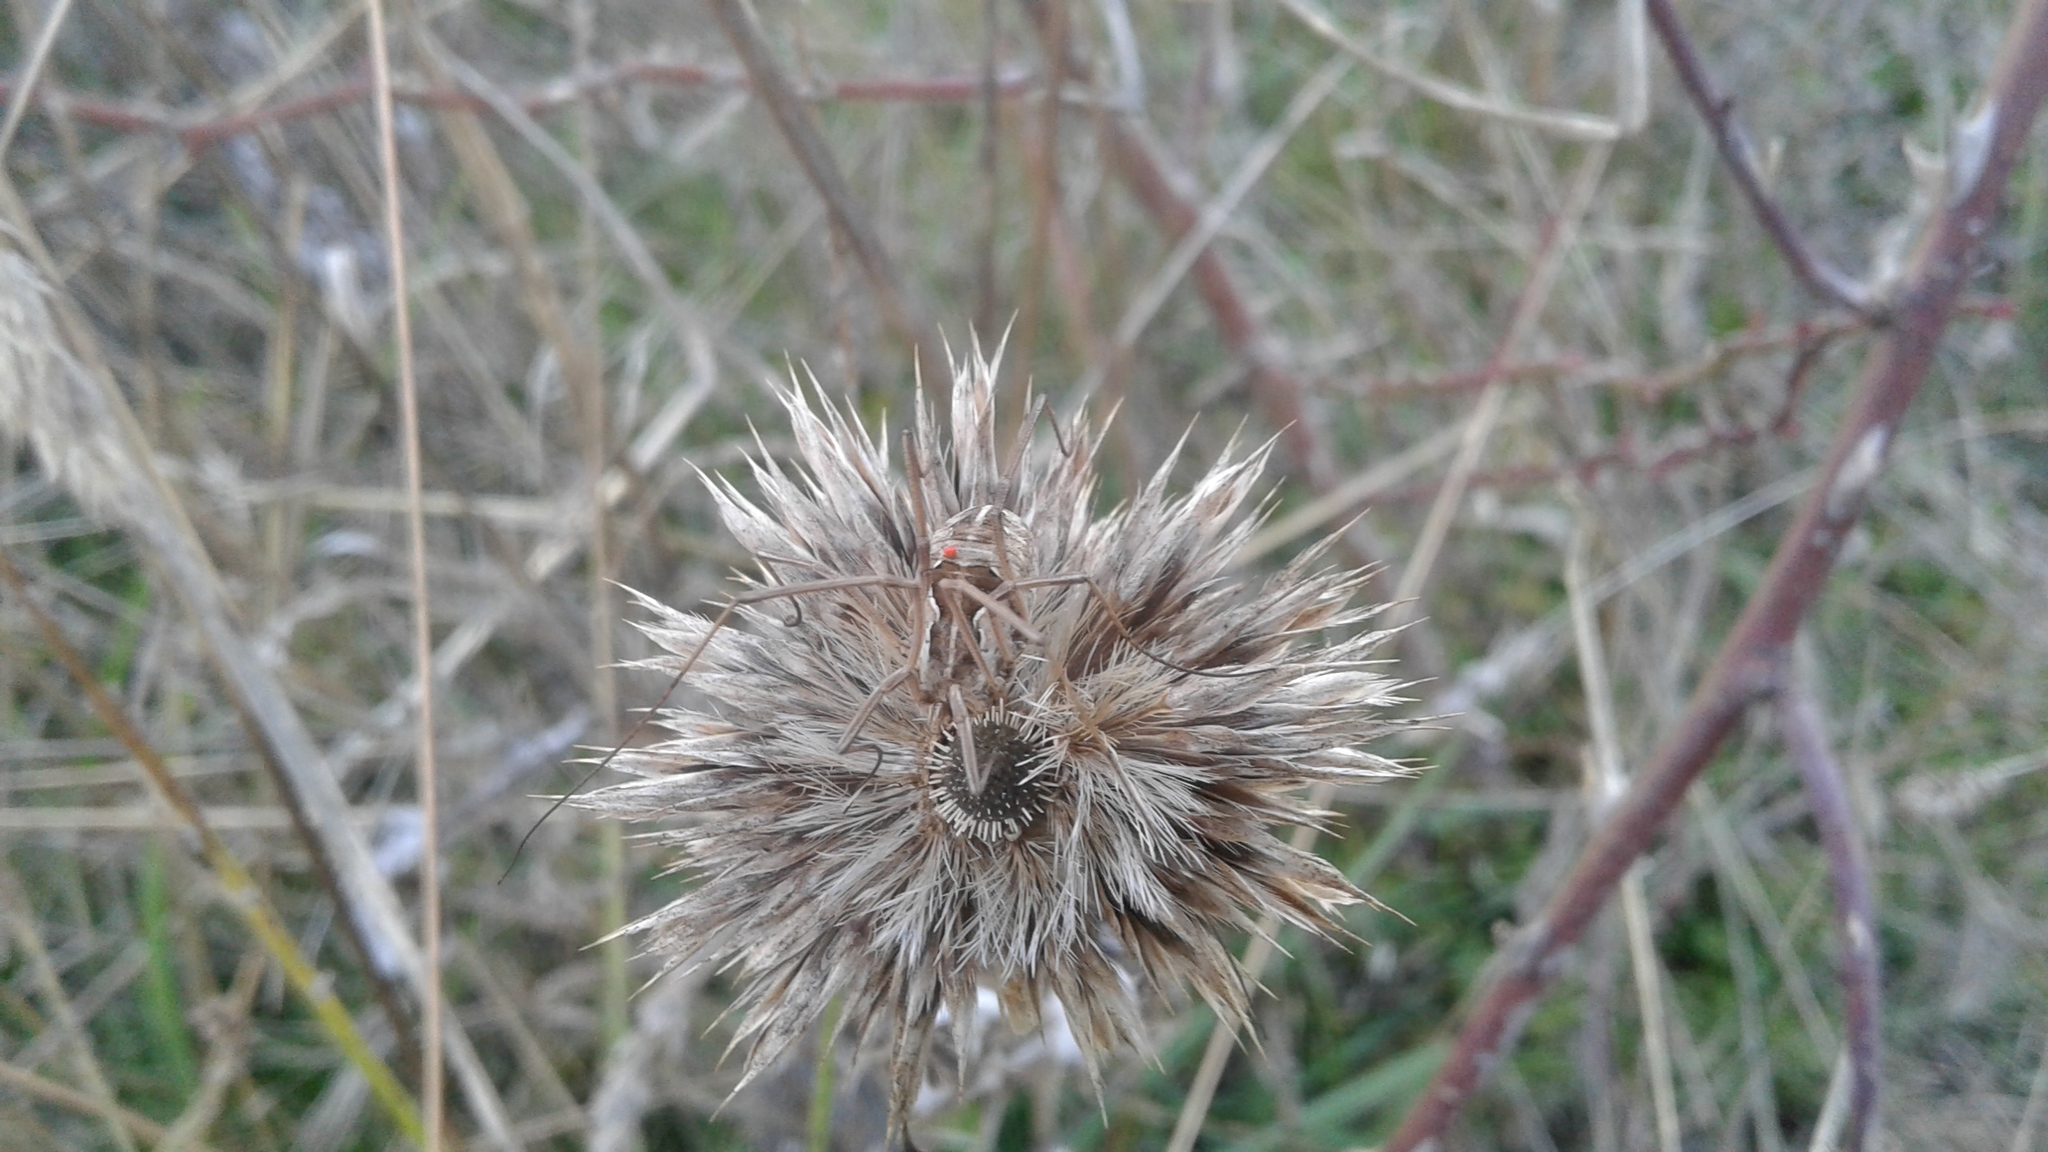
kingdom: Animalia
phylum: Arthropoda
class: Arachnida
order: Opiliones
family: Phalangiidae
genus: Metaphalangium
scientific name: Metaphalangium cirtanum
